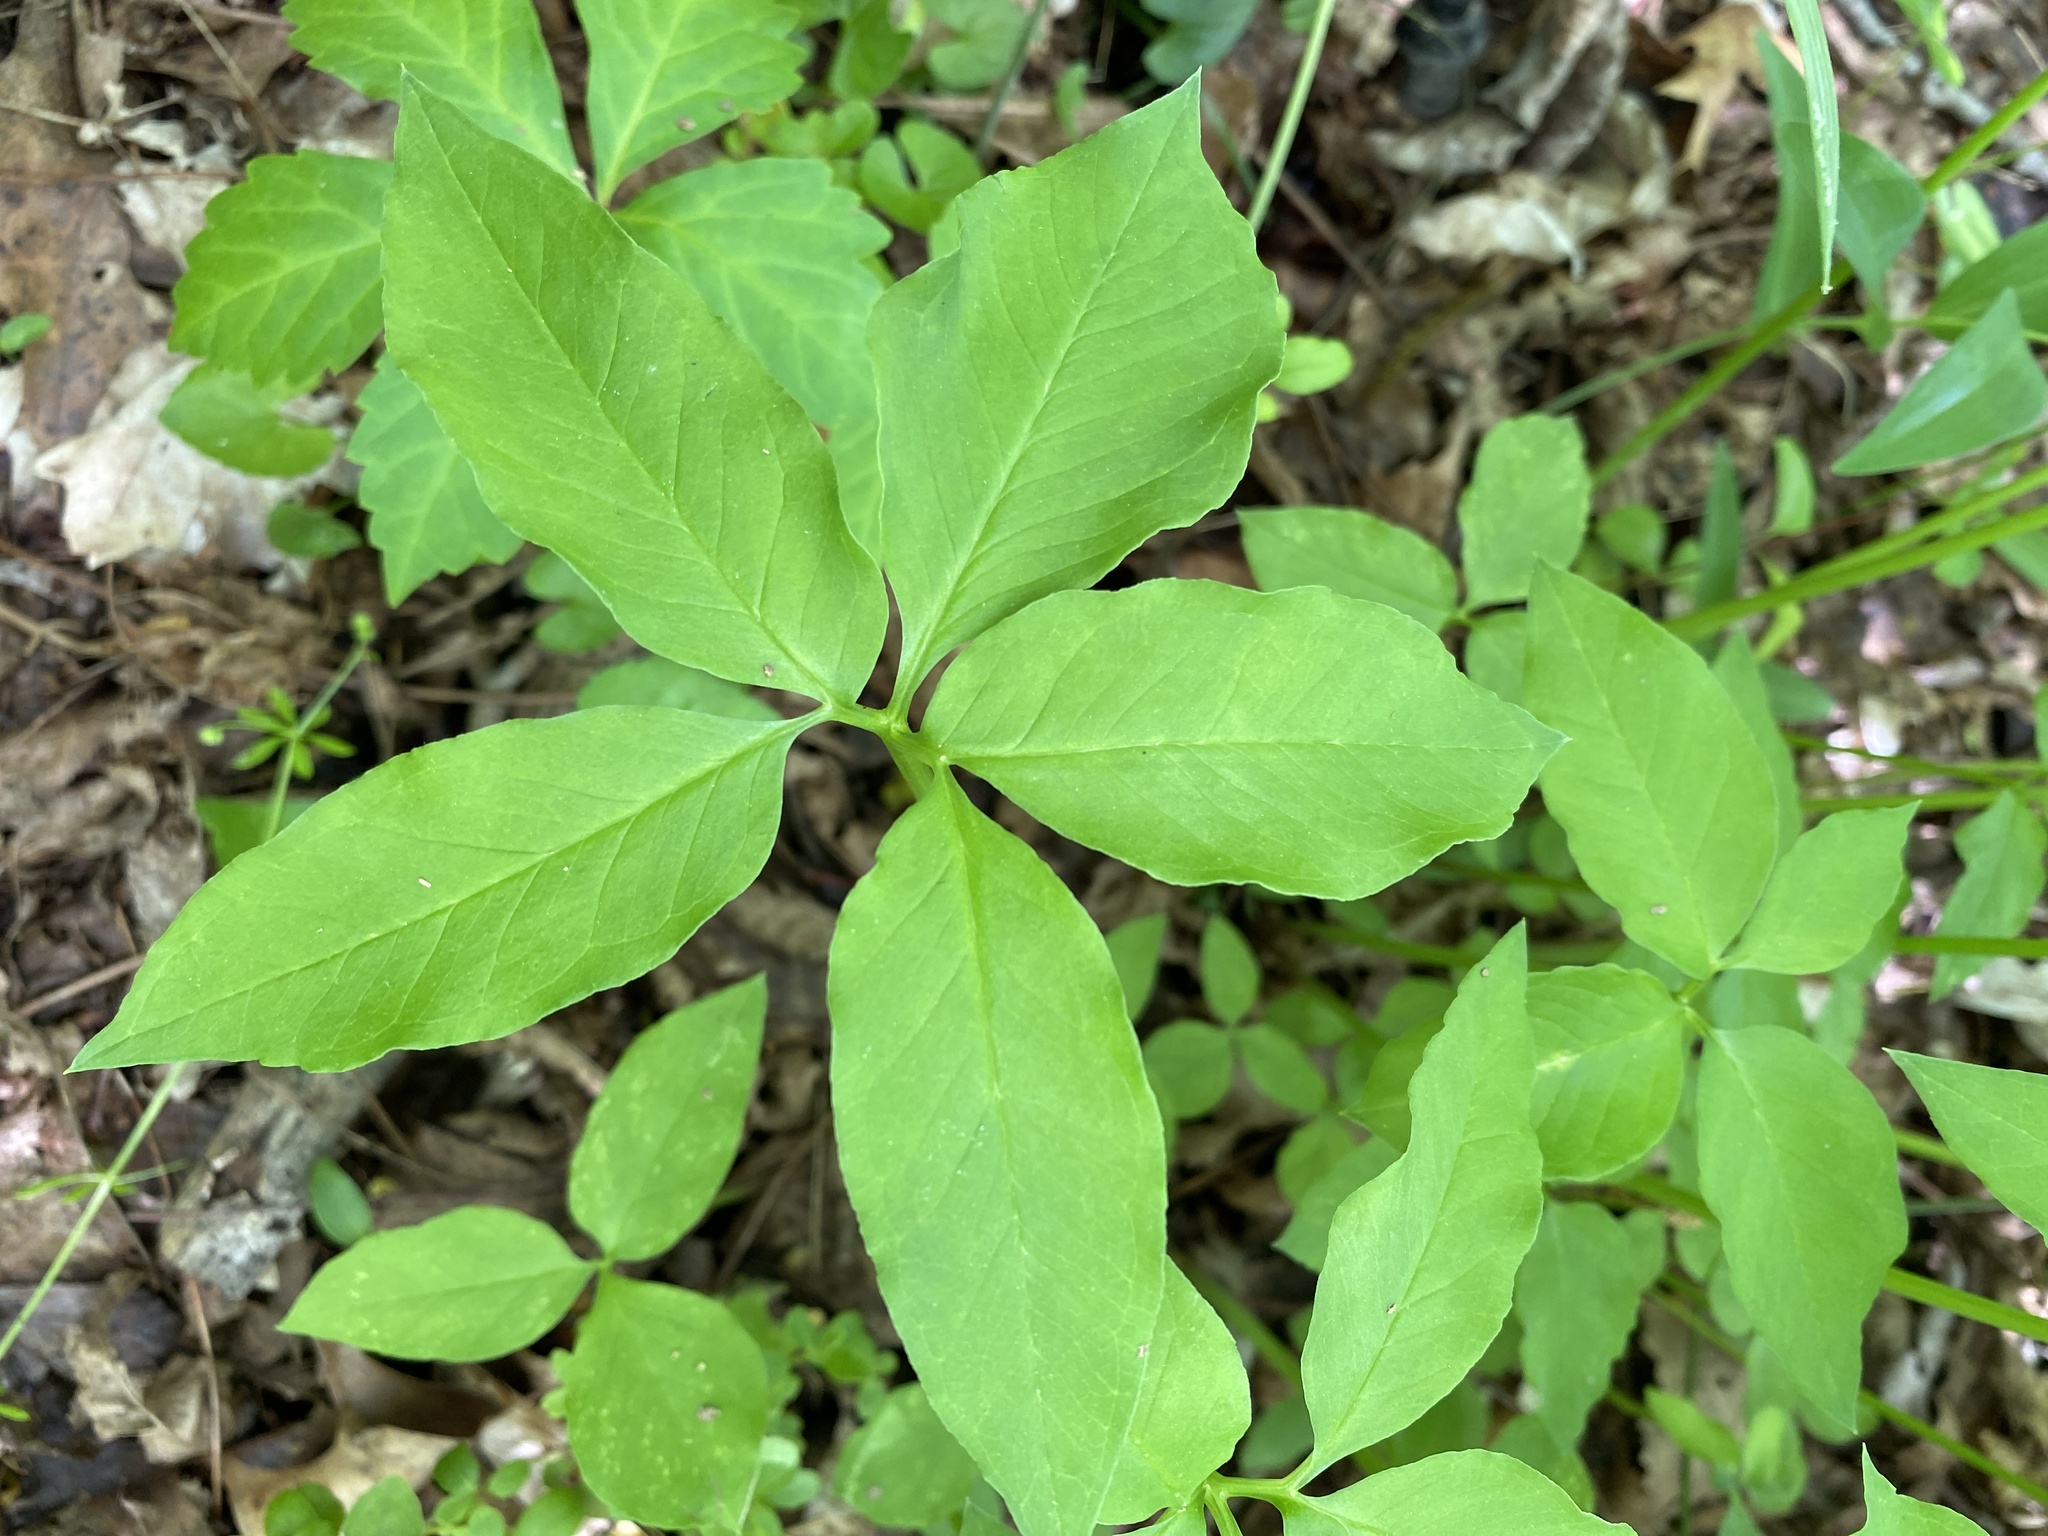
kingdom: Plantae
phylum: Tracheophyta
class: Liliopsida
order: Alismatales
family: Araceae
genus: Arisaema
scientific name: Arisaema dracontium
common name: Dragon-arum
